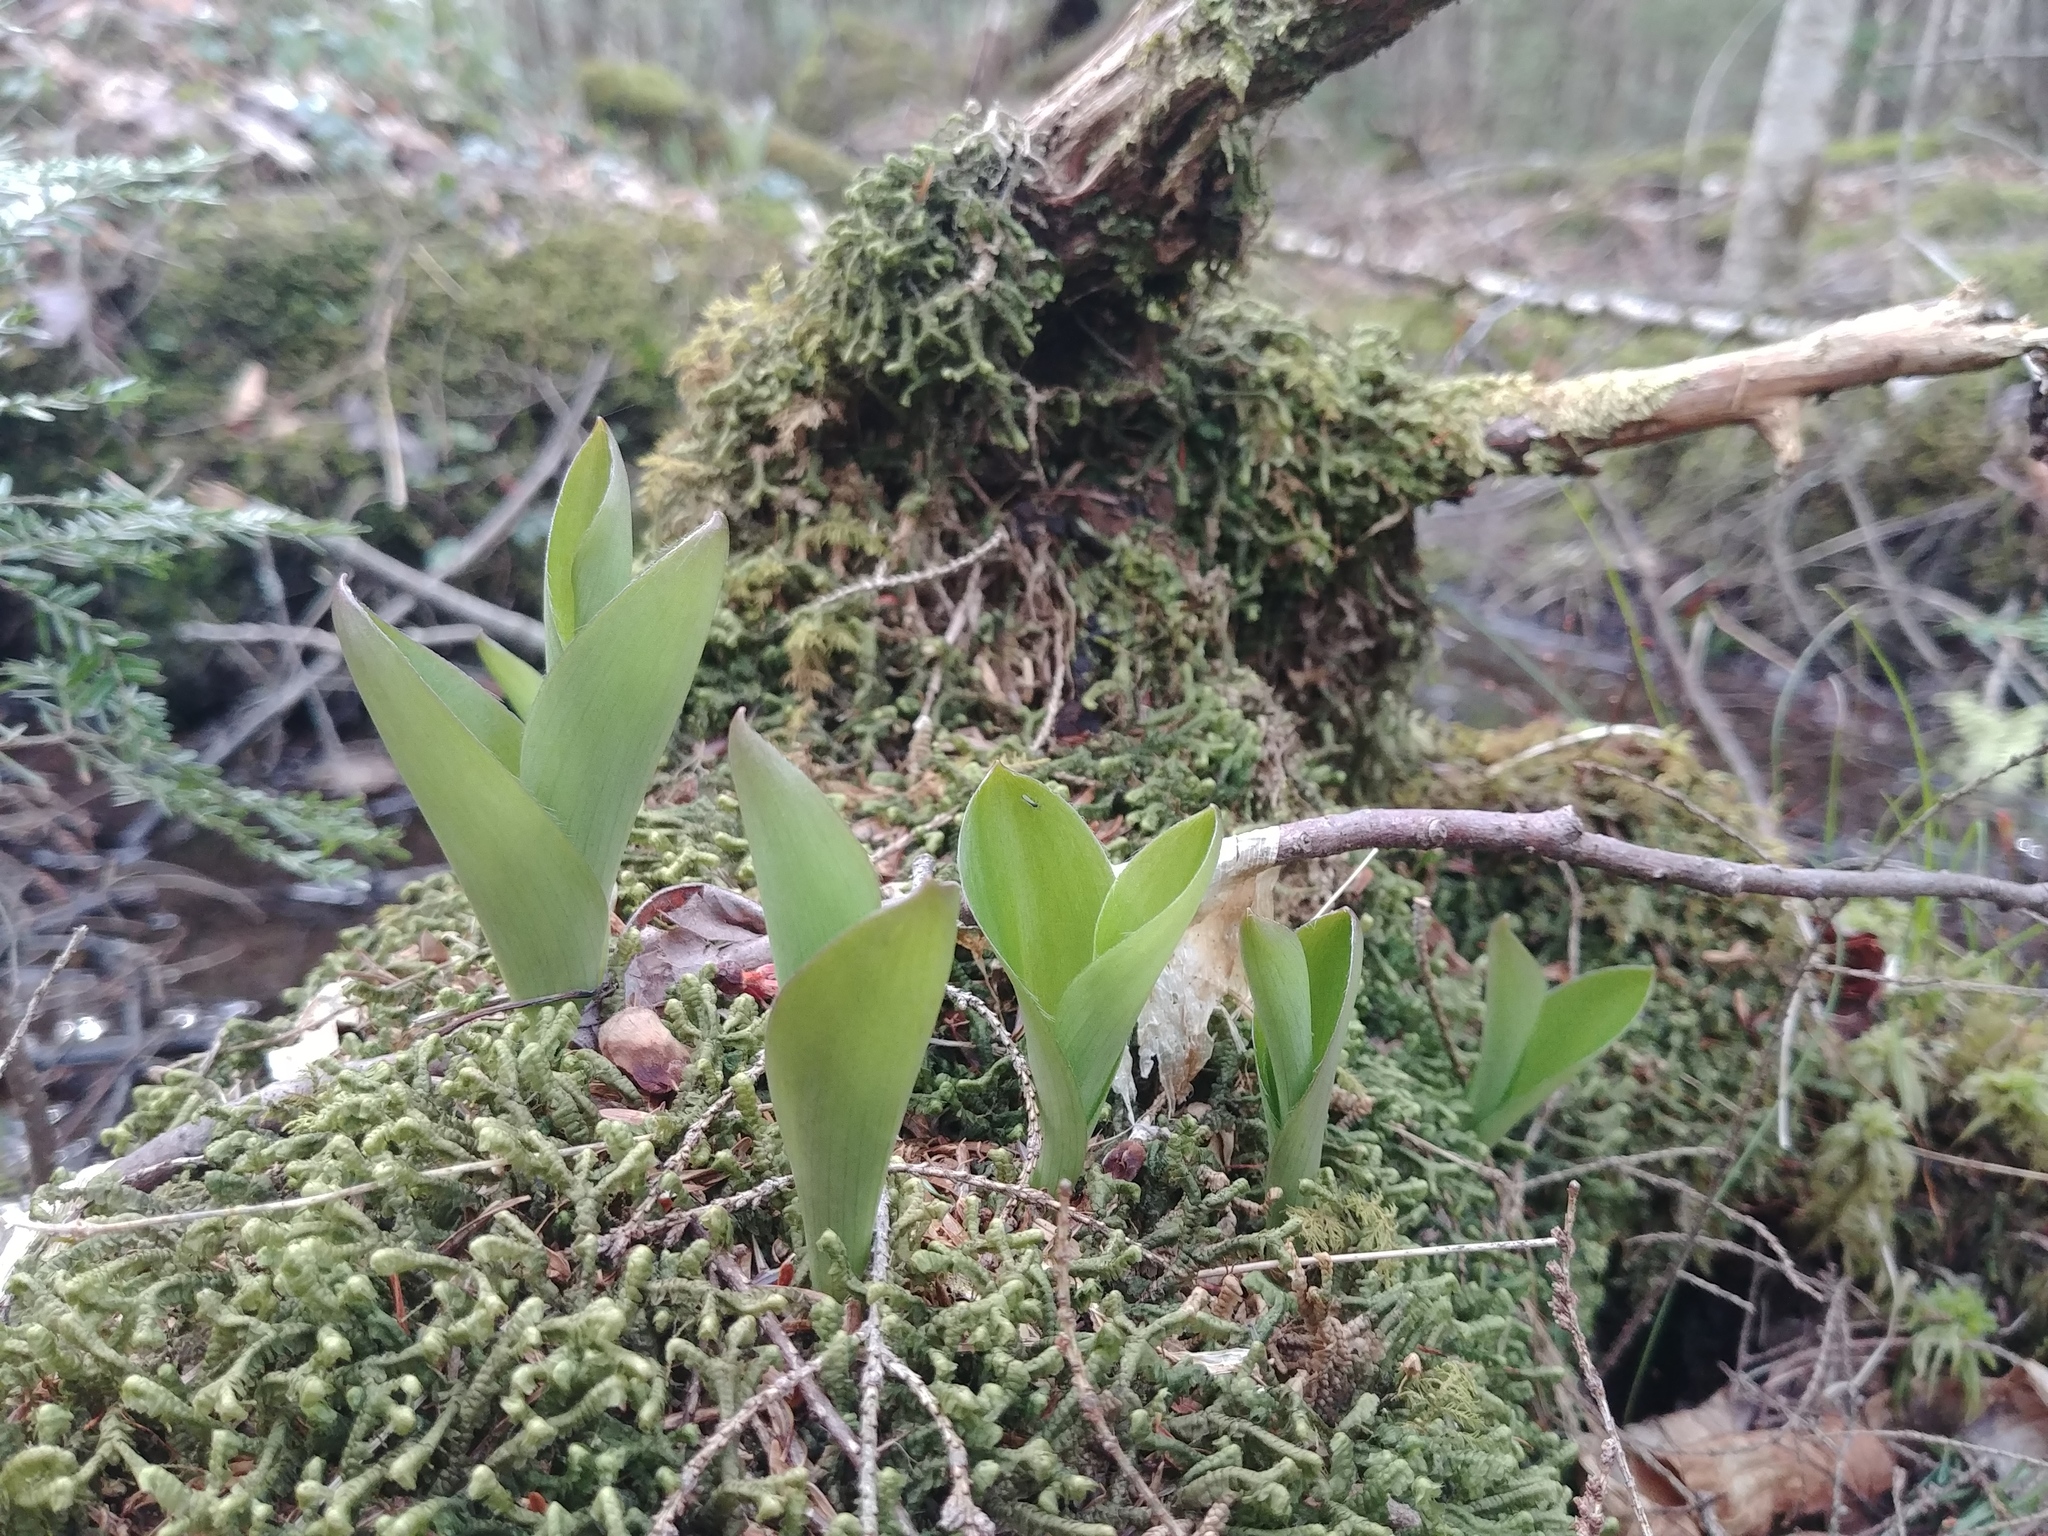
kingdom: Plantae
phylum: Tracheophyta
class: Liliopsida
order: Liliales
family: Liliaceae
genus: Clintonia
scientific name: Clintonia borealis
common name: Yellow clintonia
